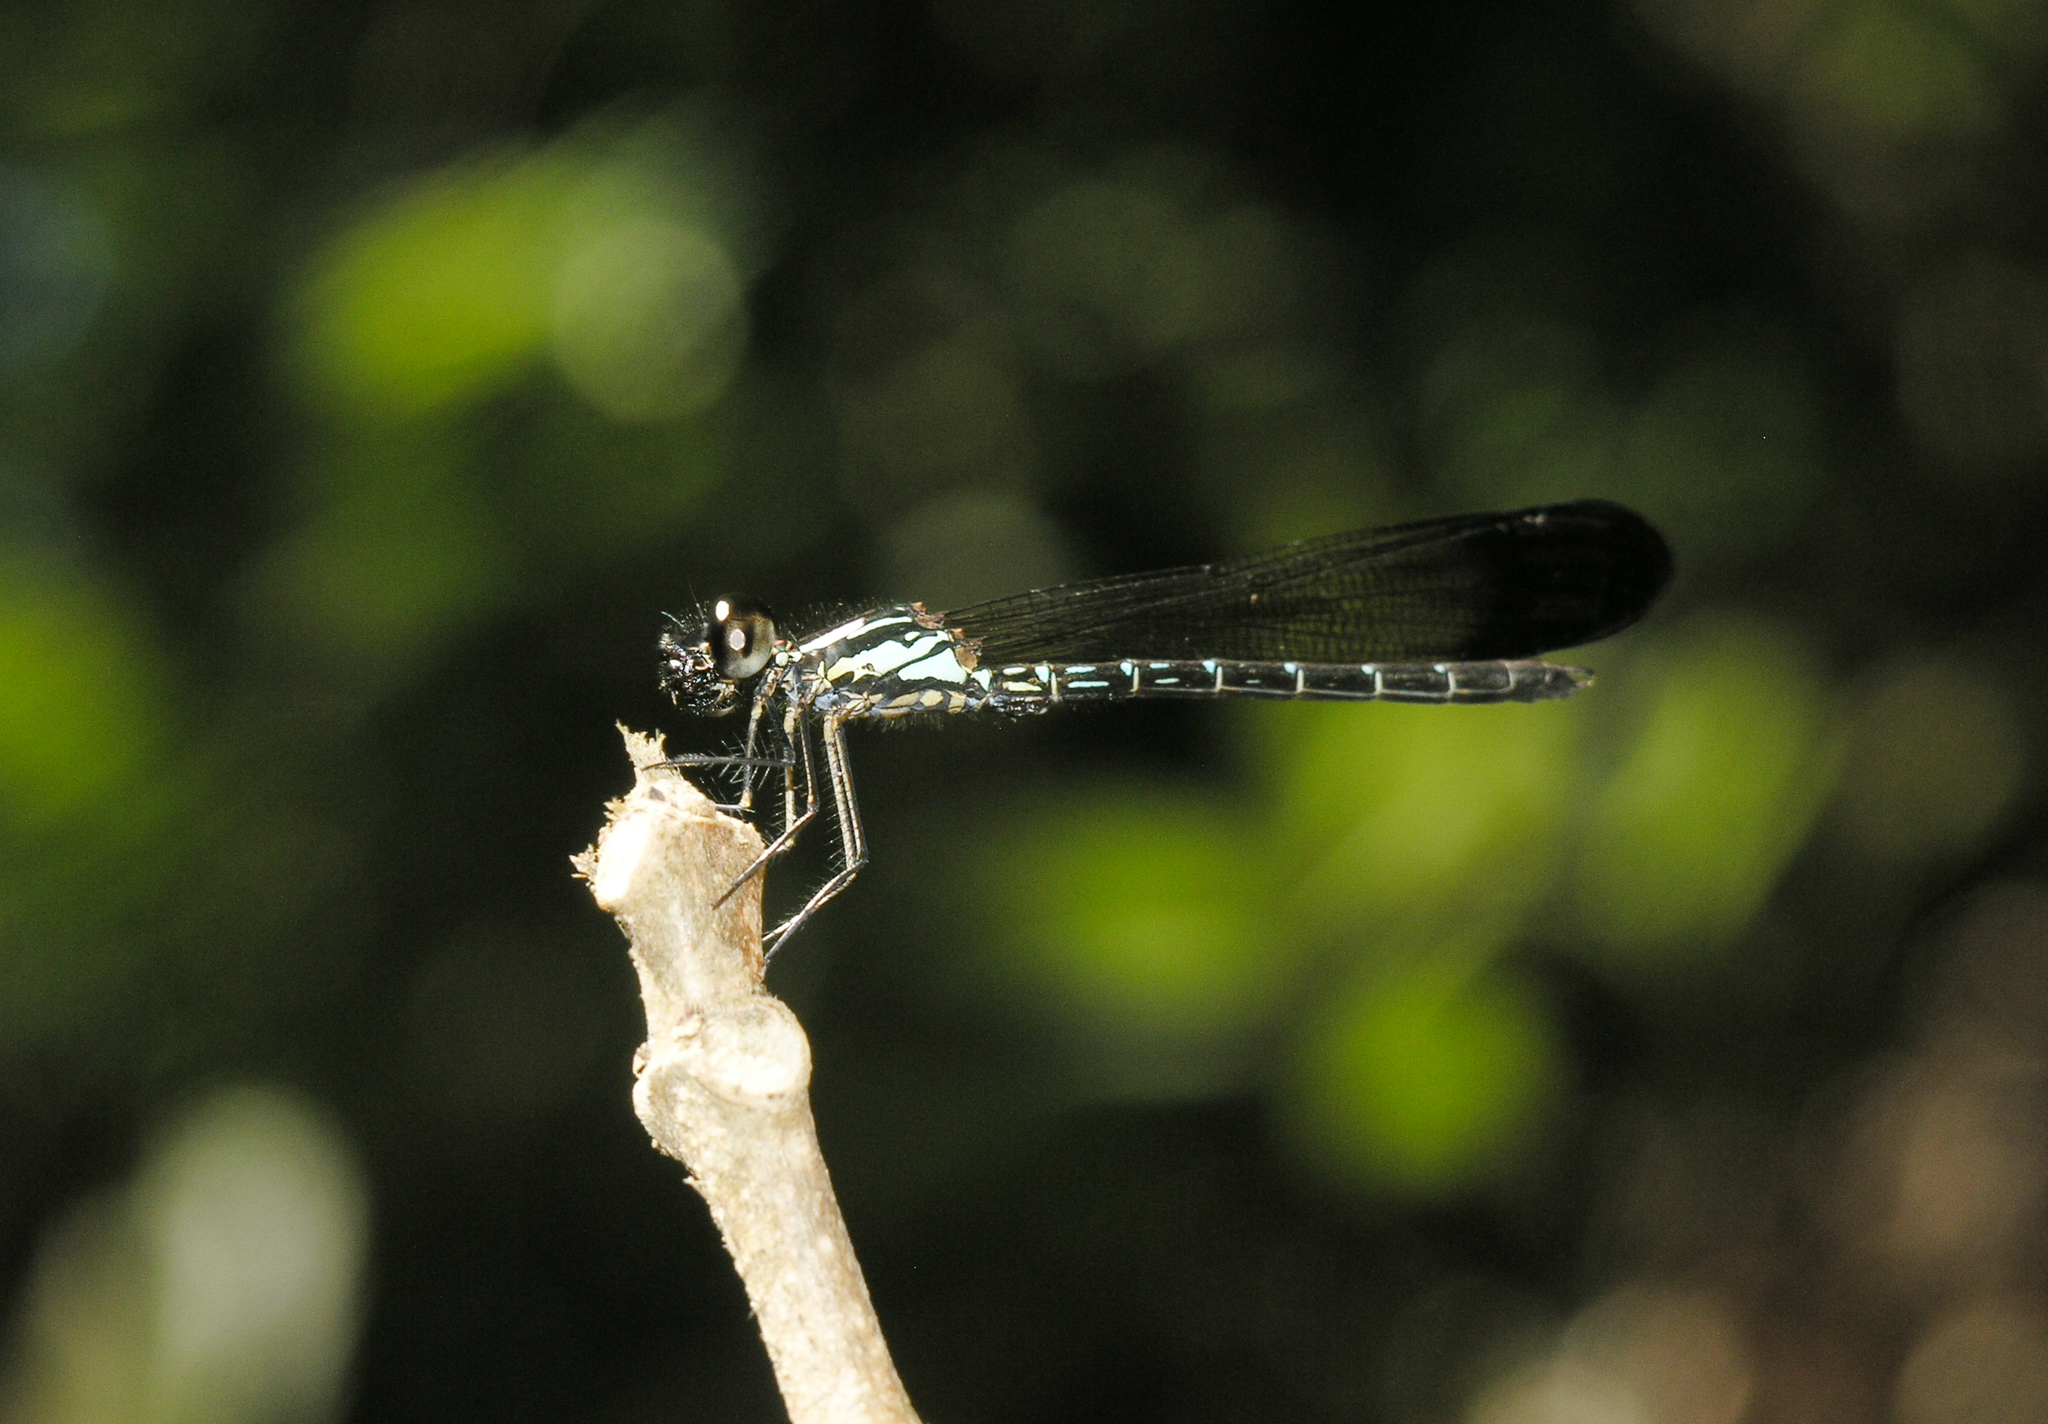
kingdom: Animalia
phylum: Arthropoda
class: Insecta
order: Odonata
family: Chlorocyphidae
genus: Heliocypha
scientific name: Heliocypha biforata
